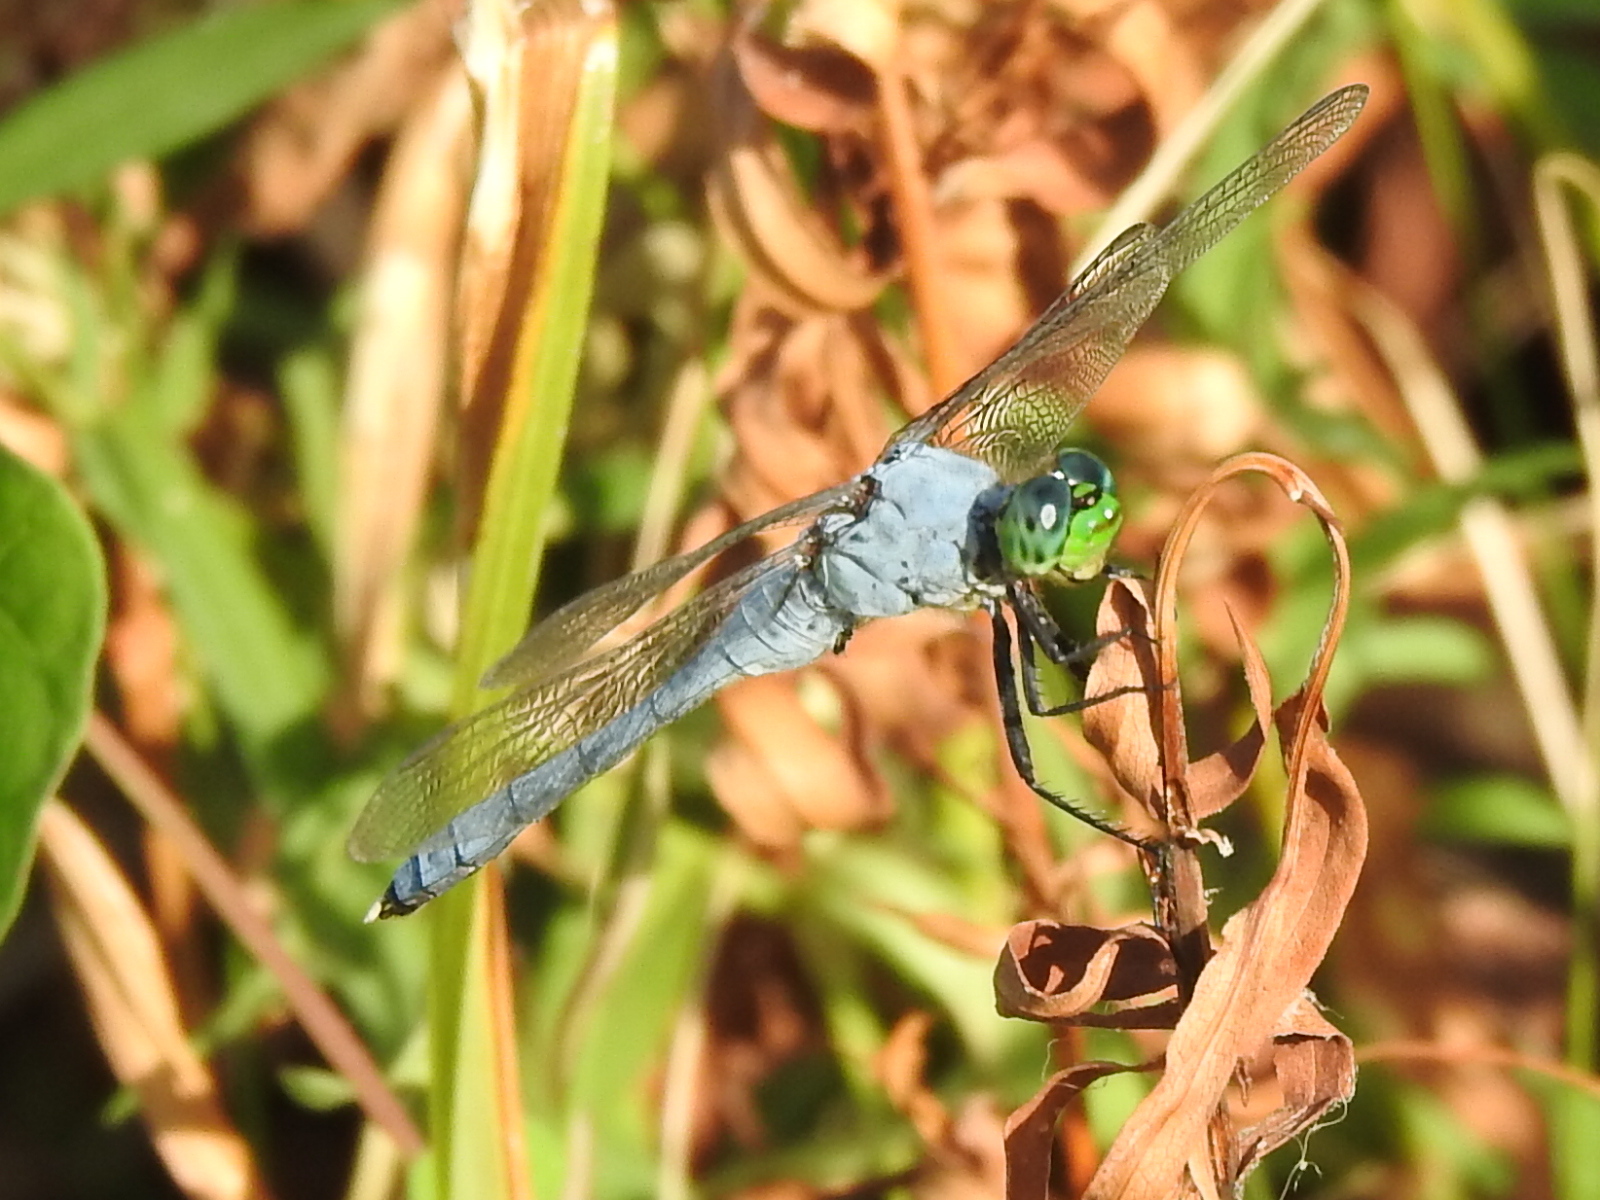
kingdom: Animalia
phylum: Arthropoda
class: Insecta
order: Odonata
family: Libellulidae
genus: Erythemis
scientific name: Erythemis simplicicollis
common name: Eastern pondhawk
